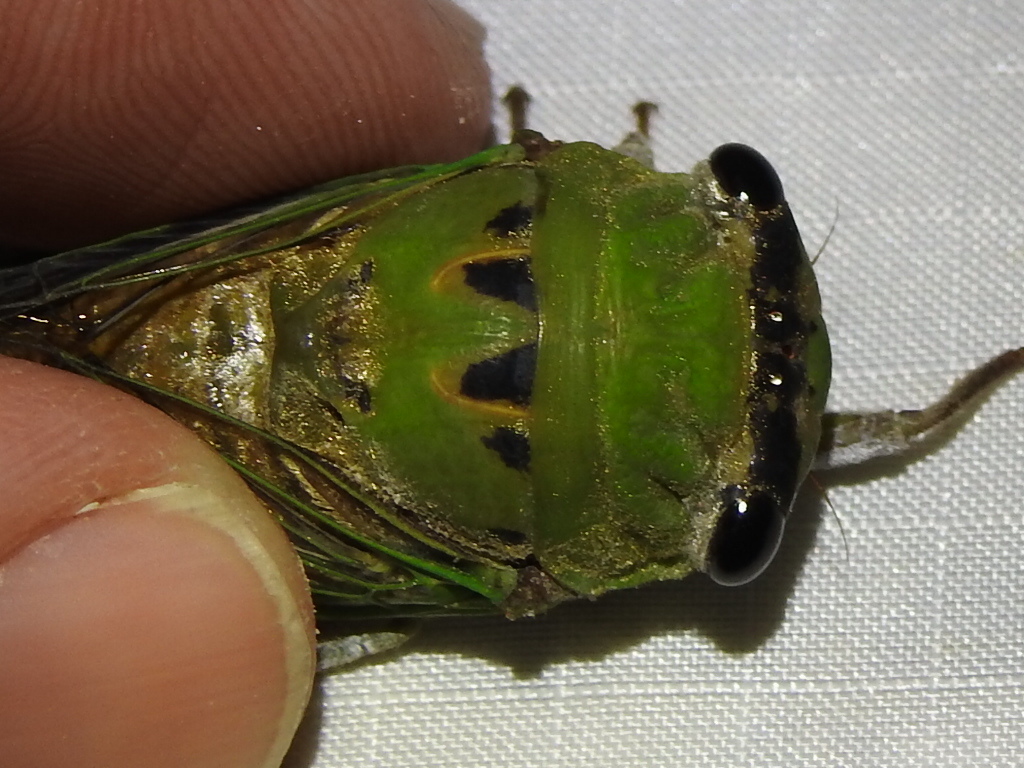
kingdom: Animalia
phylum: Arthropoda
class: Insecta
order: Hemiptera
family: Cicadidae
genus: Neotibicen
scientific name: Neotibicen superbus
